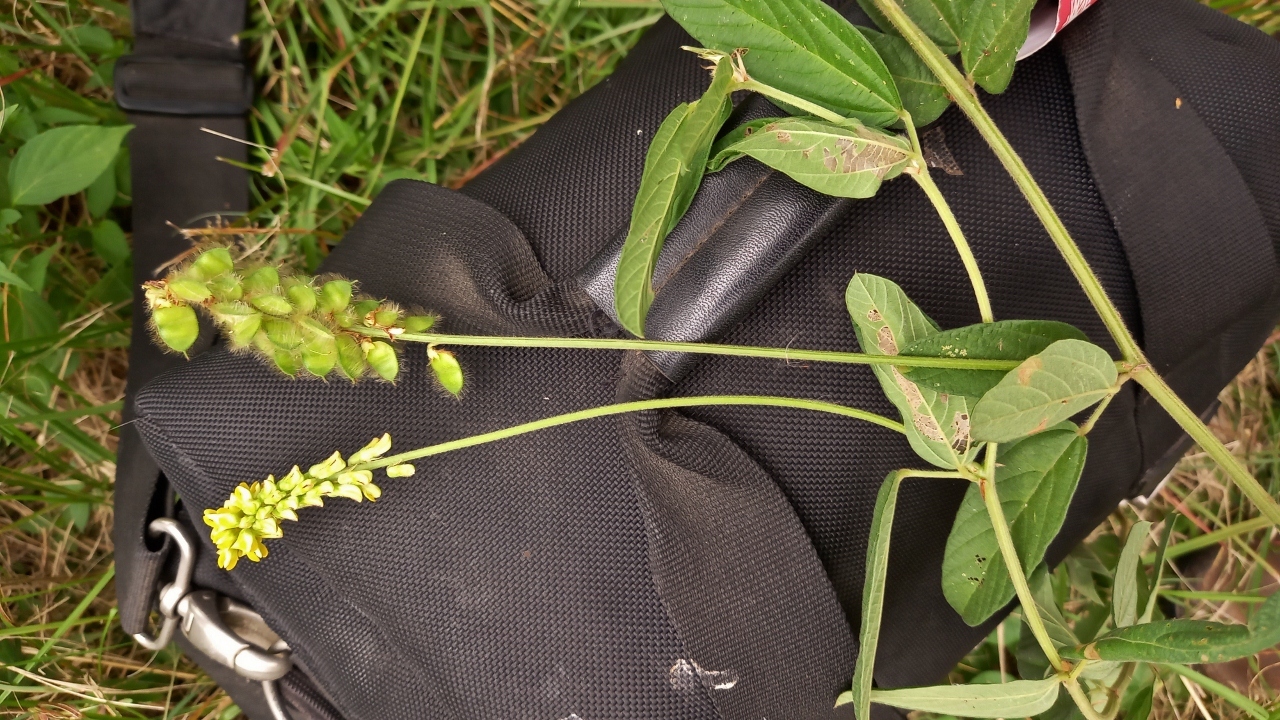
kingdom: Plantae
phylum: Tracheophyta
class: Magnoliopsida
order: Fabales
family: Fabaceae
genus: Eriosema
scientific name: Eriosema nutans
